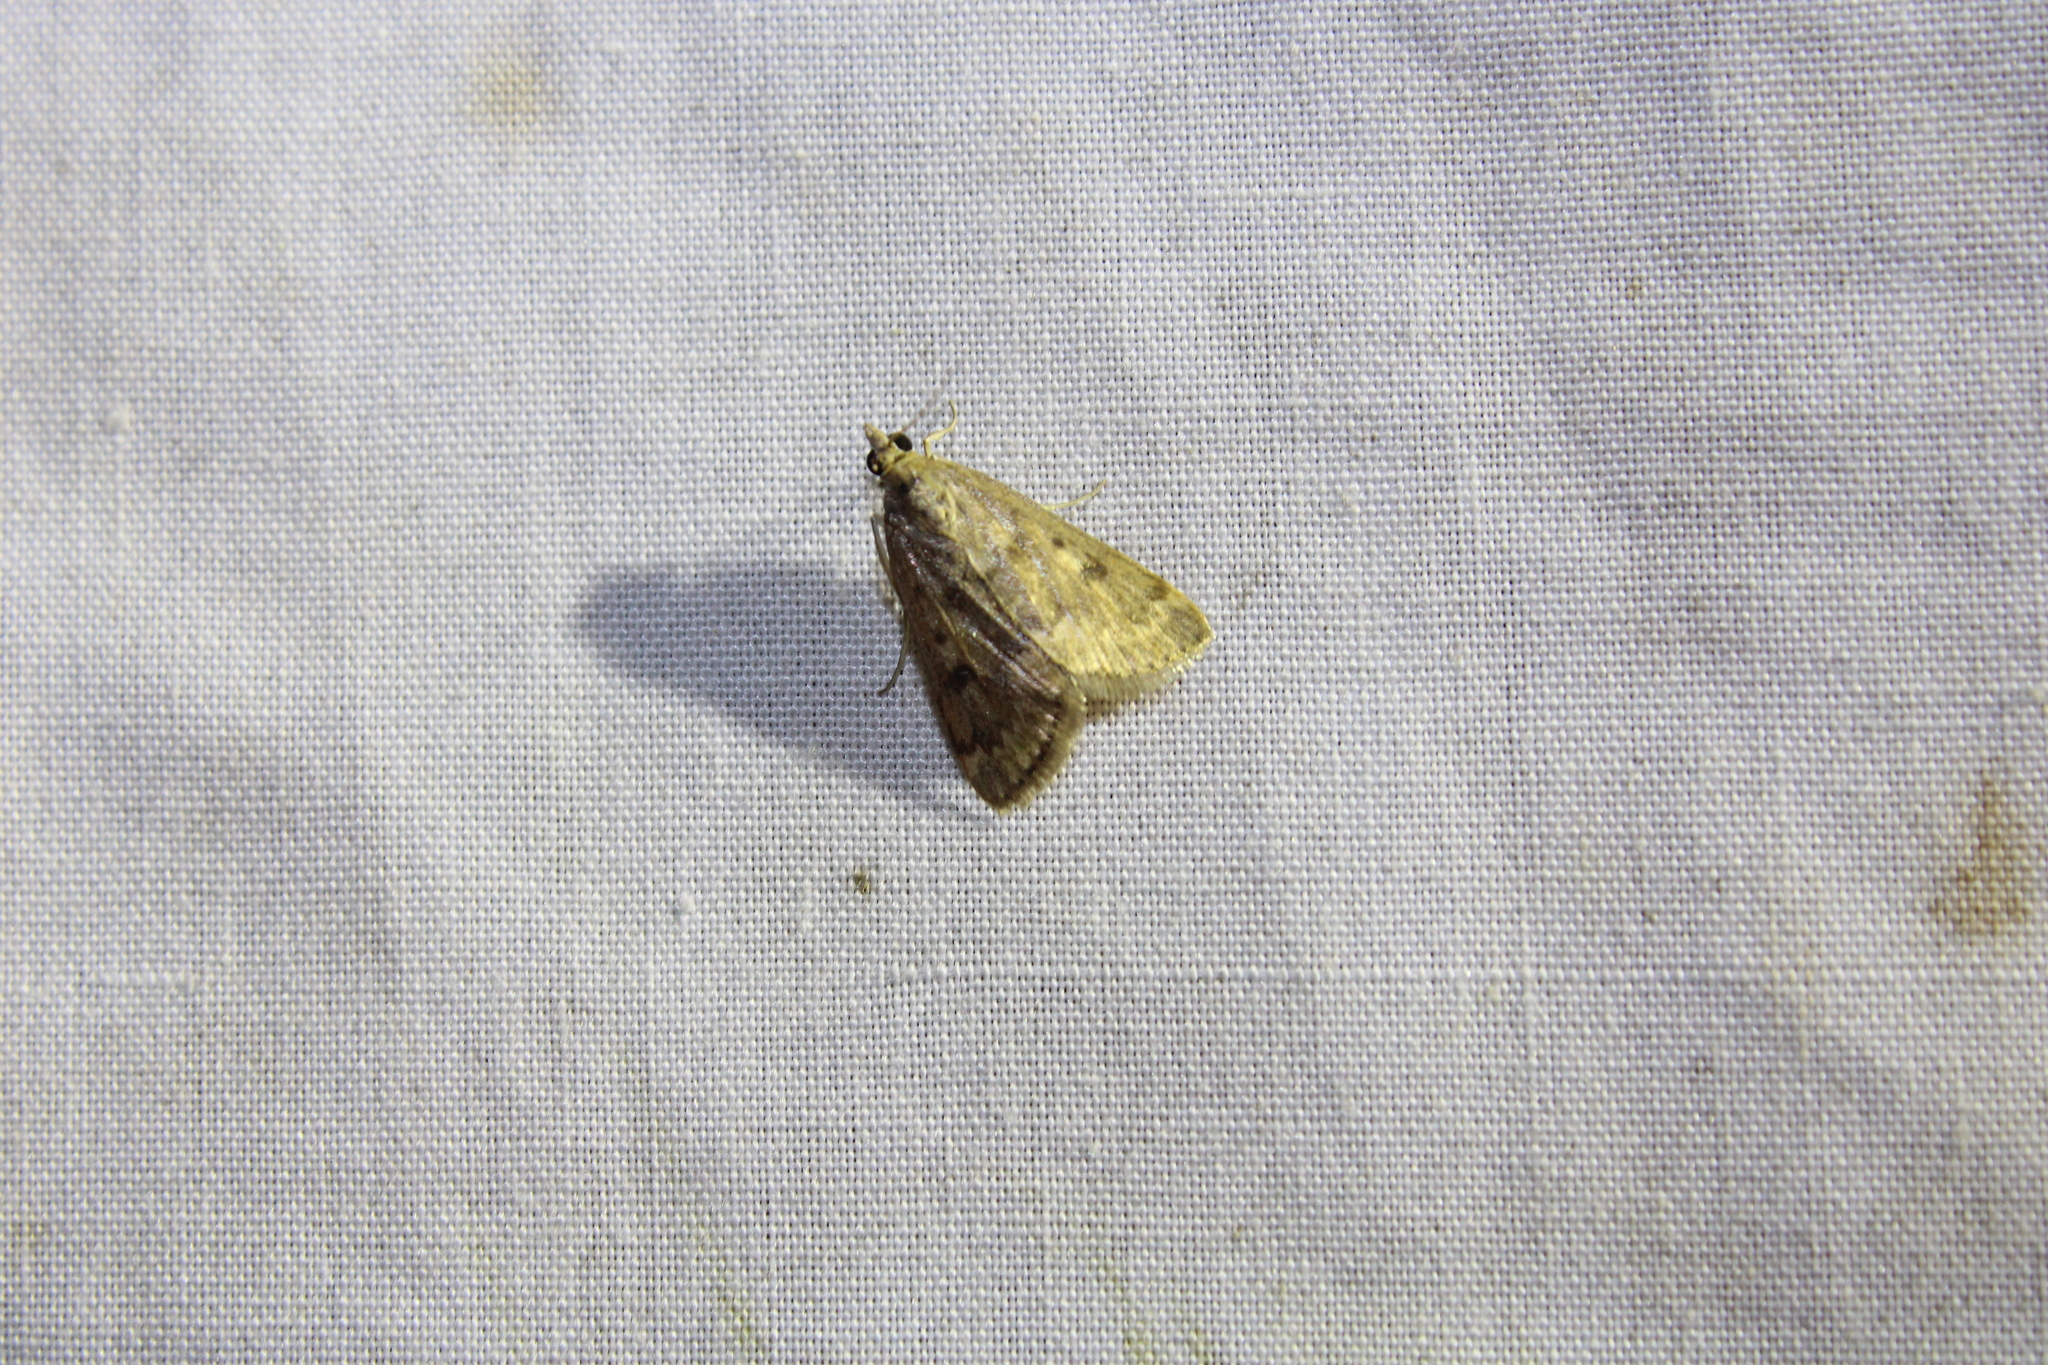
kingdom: Animalia
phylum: Arthropoda
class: Insecta
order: Lepidoptera
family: Crambidae
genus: Achyra
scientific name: Achyra rantalis
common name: Garden webworm
